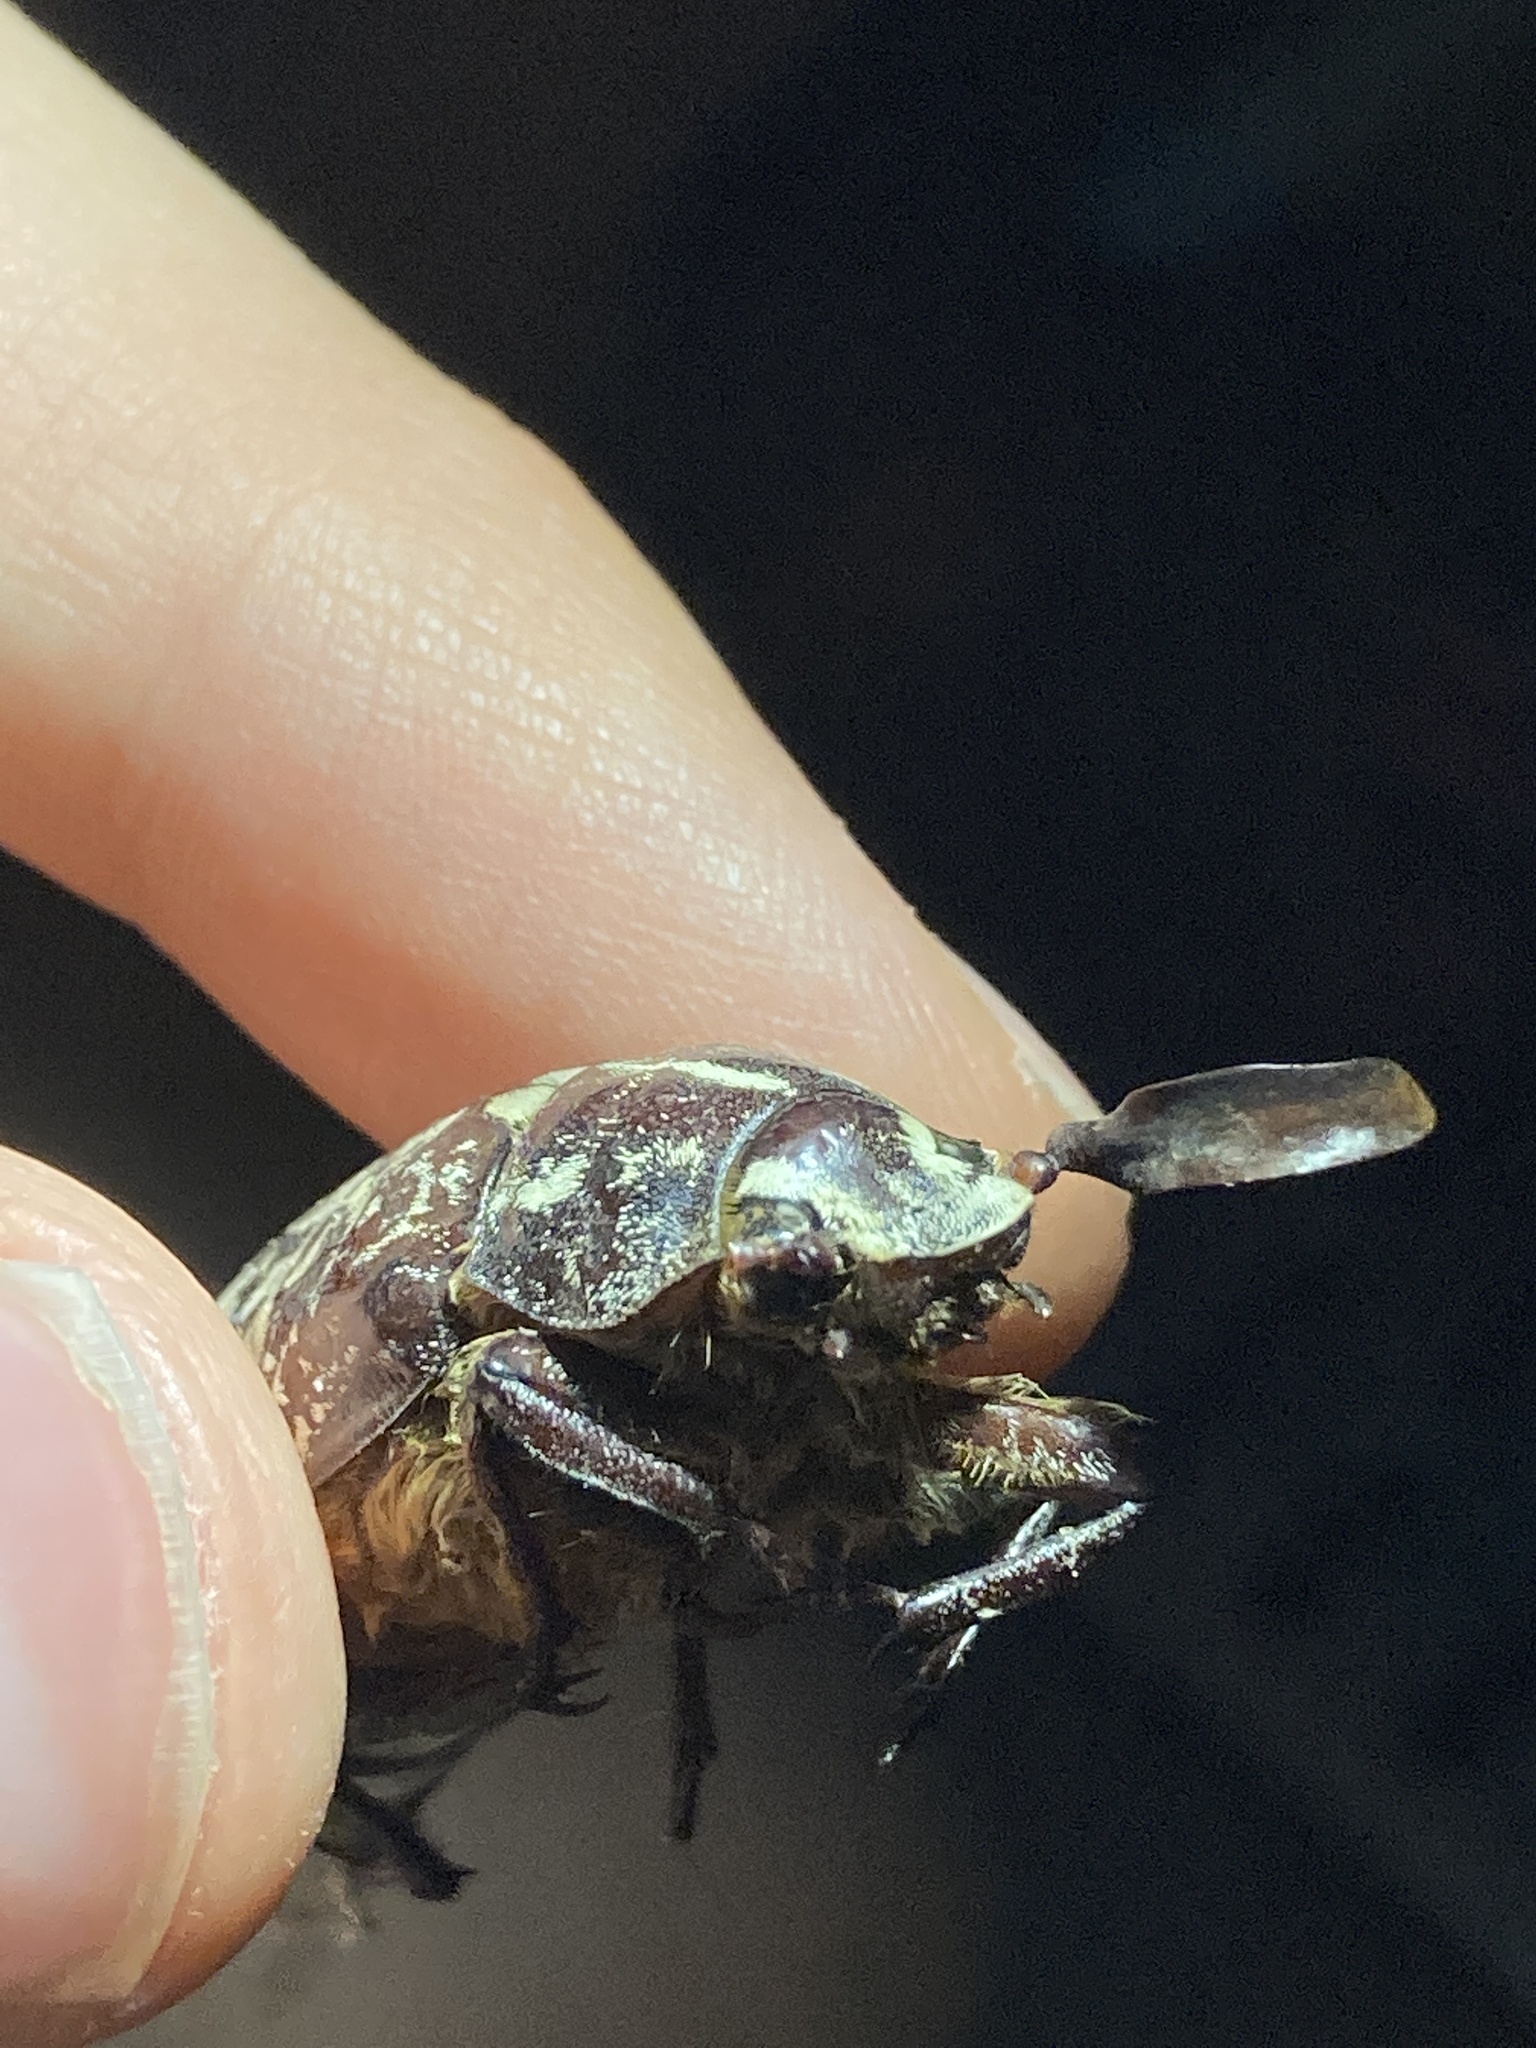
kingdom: Animalia
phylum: Arthropoda
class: Insecta
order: Coleoptera
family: Scarabaeidae
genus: Polyphylla
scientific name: Polyphylla fullo
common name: Pine chafer
